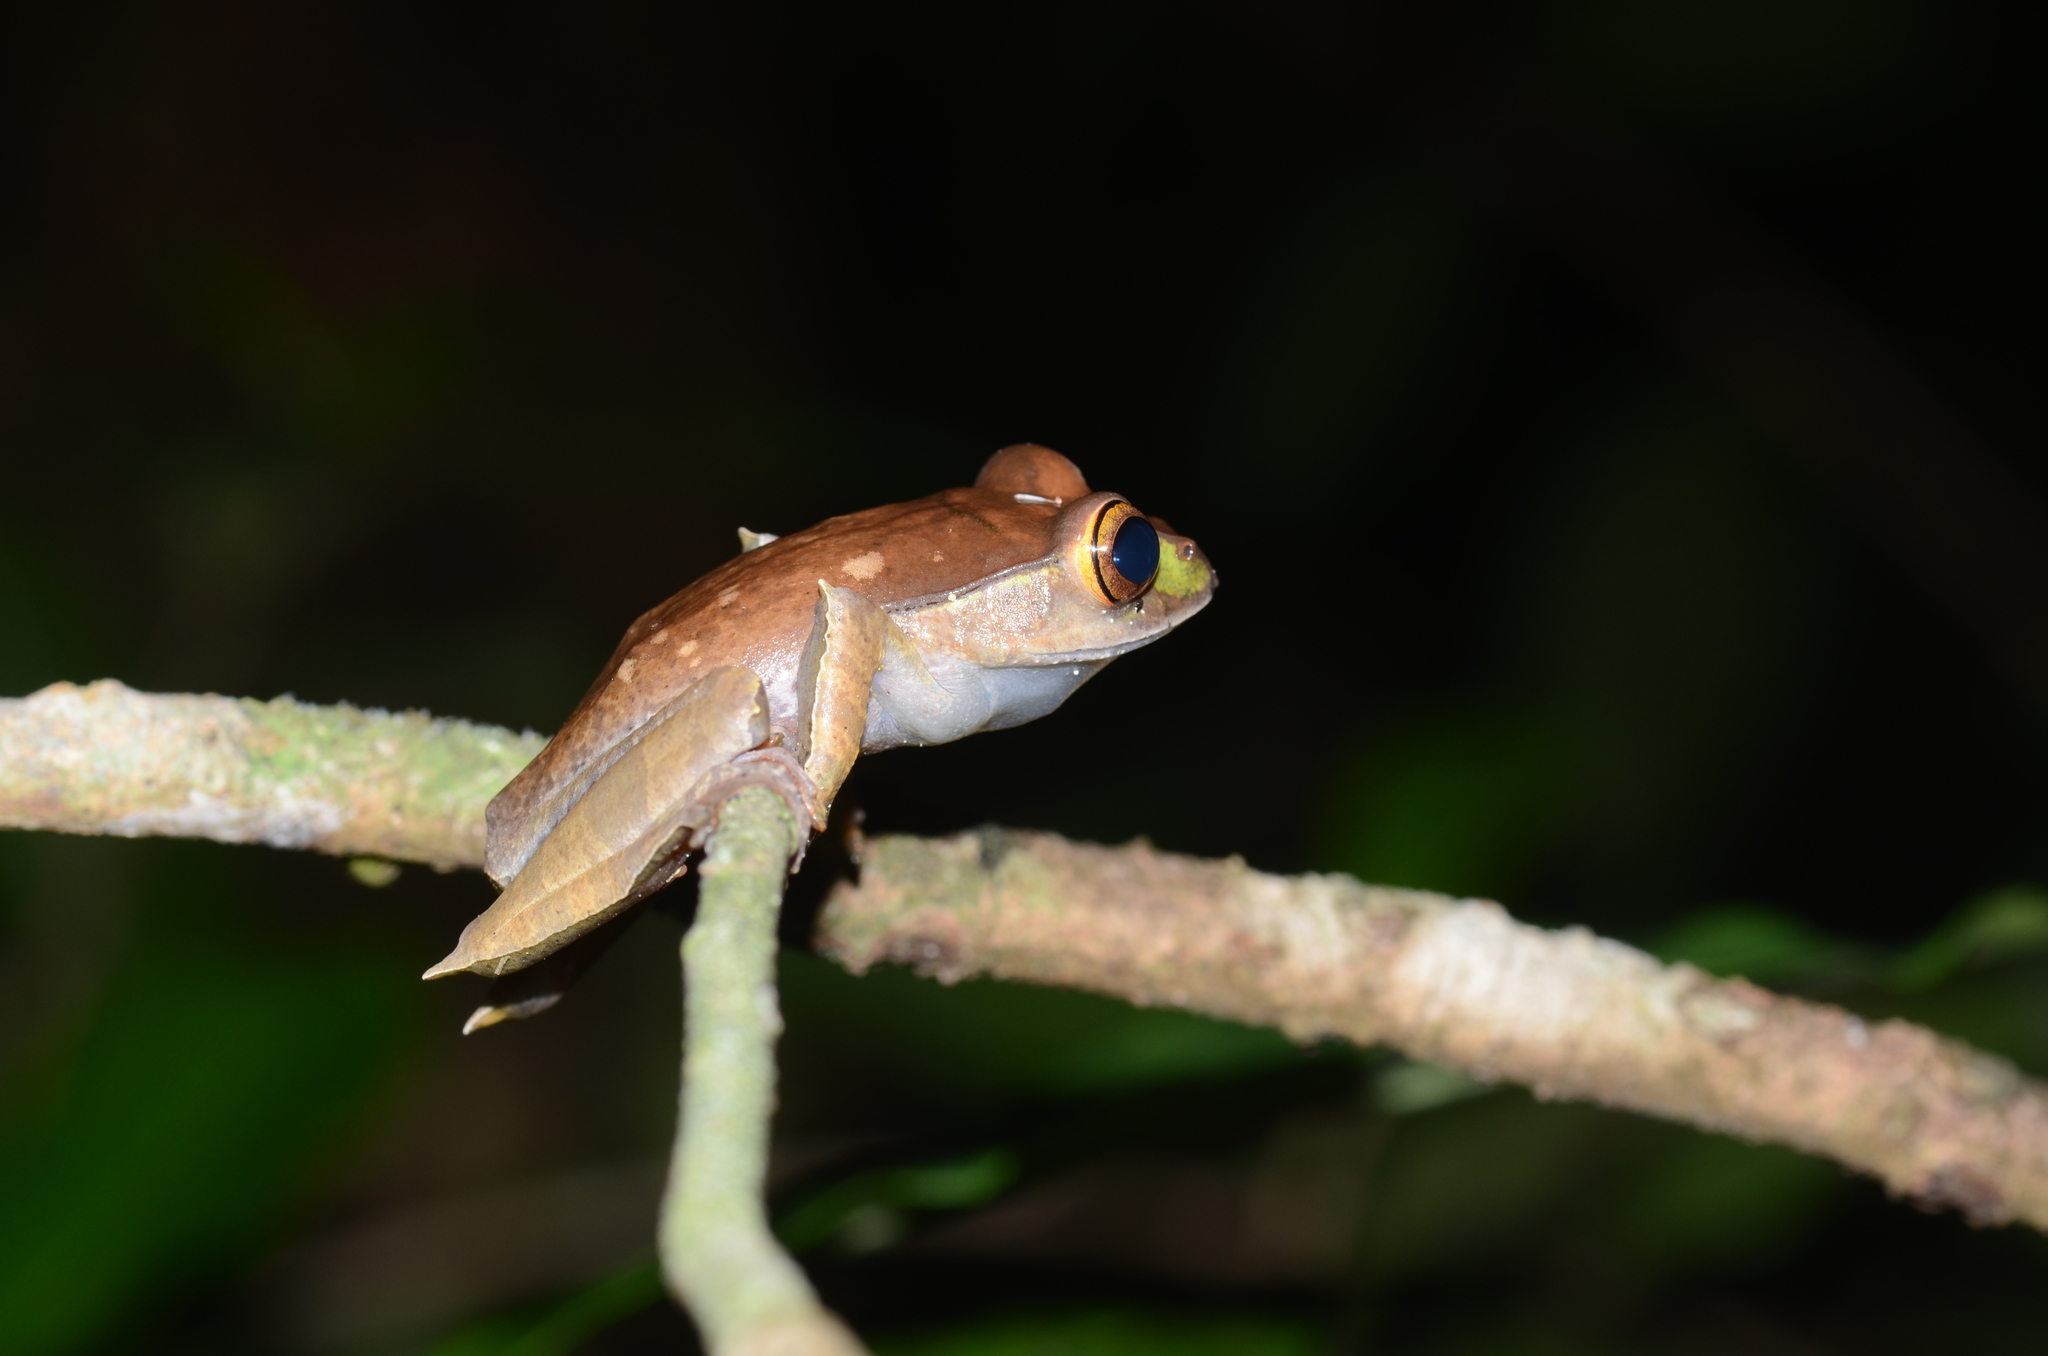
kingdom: Animalia
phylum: Chordata
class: Amphibia
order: Anura
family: Mantellidae
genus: Boophis
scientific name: Boophis madagascariensis
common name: Madagascar bright-eyed frog
